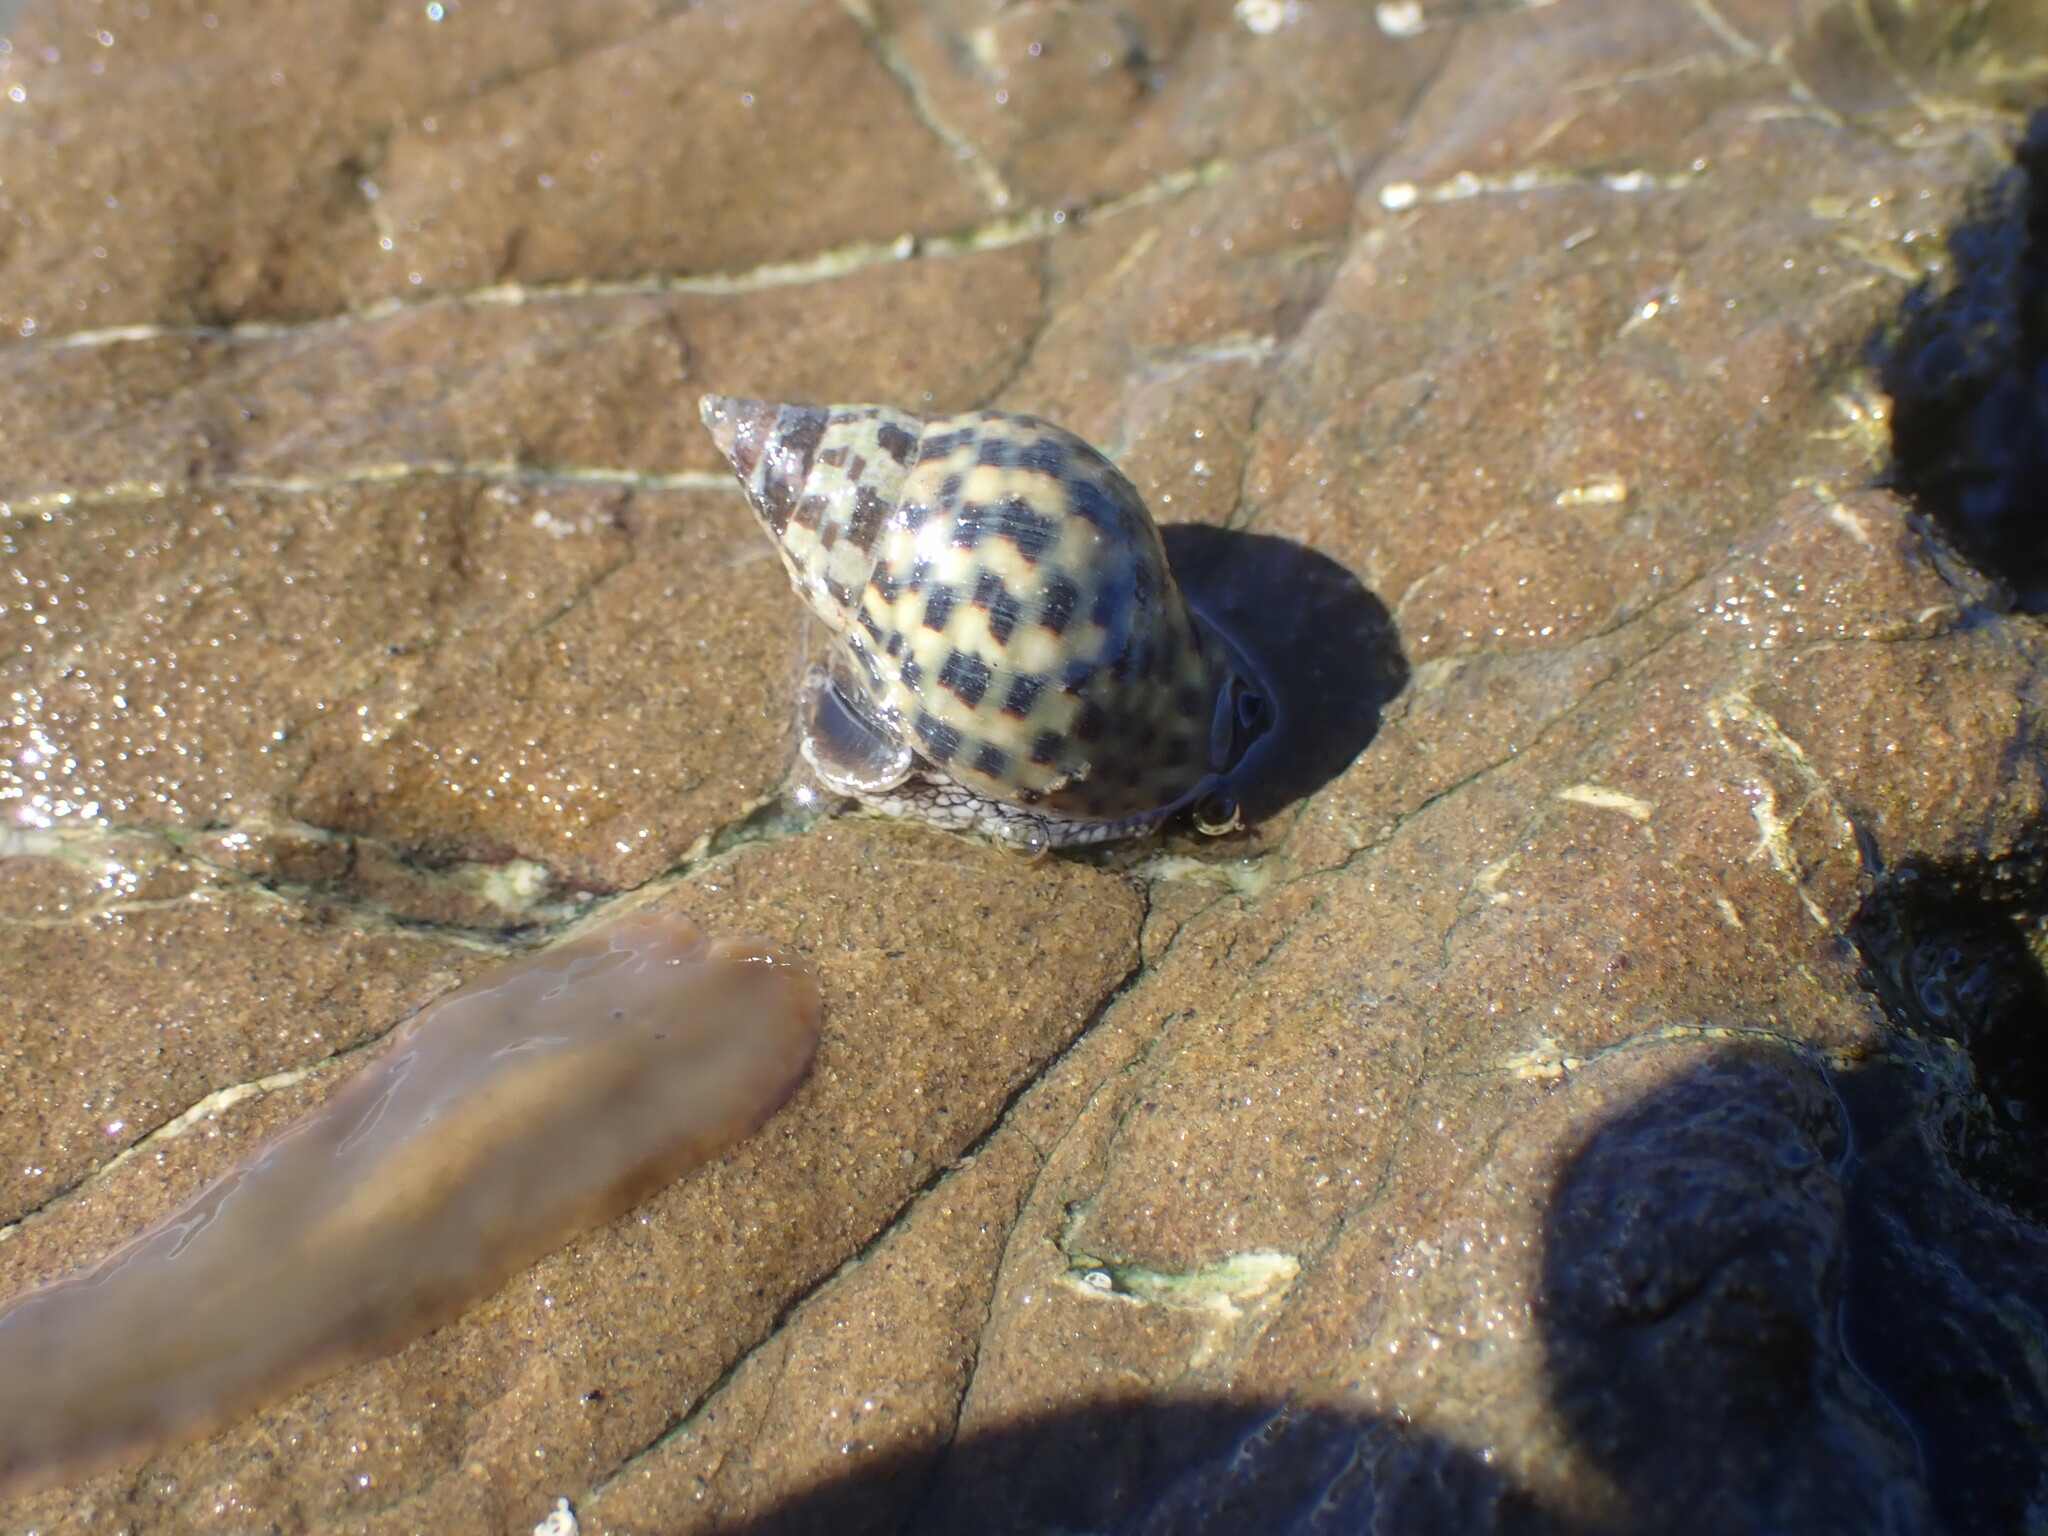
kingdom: Animalia
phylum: Mollusca
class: Gastropoda
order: Neogastropoda
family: Cominellidae
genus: Cominella
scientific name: Cominella maculosa
